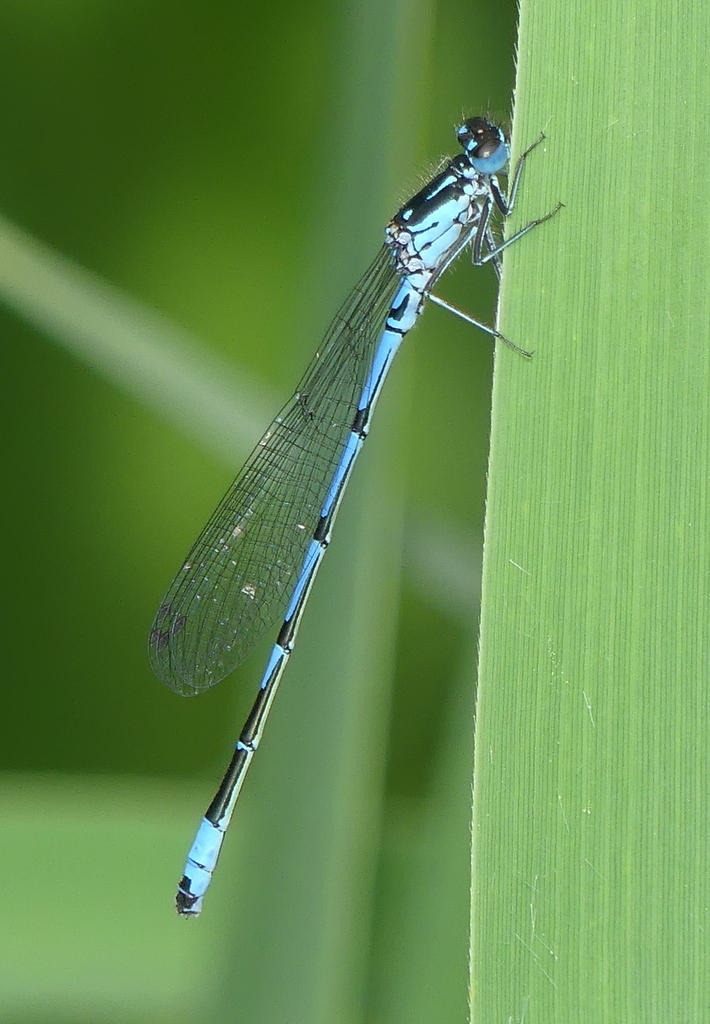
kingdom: Animalia
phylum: Arthropoda
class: Insecta
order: Odonata
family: Coenagrionidae
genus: Coenagrion
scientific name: Coenagrion puella
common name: Azure damselfly
